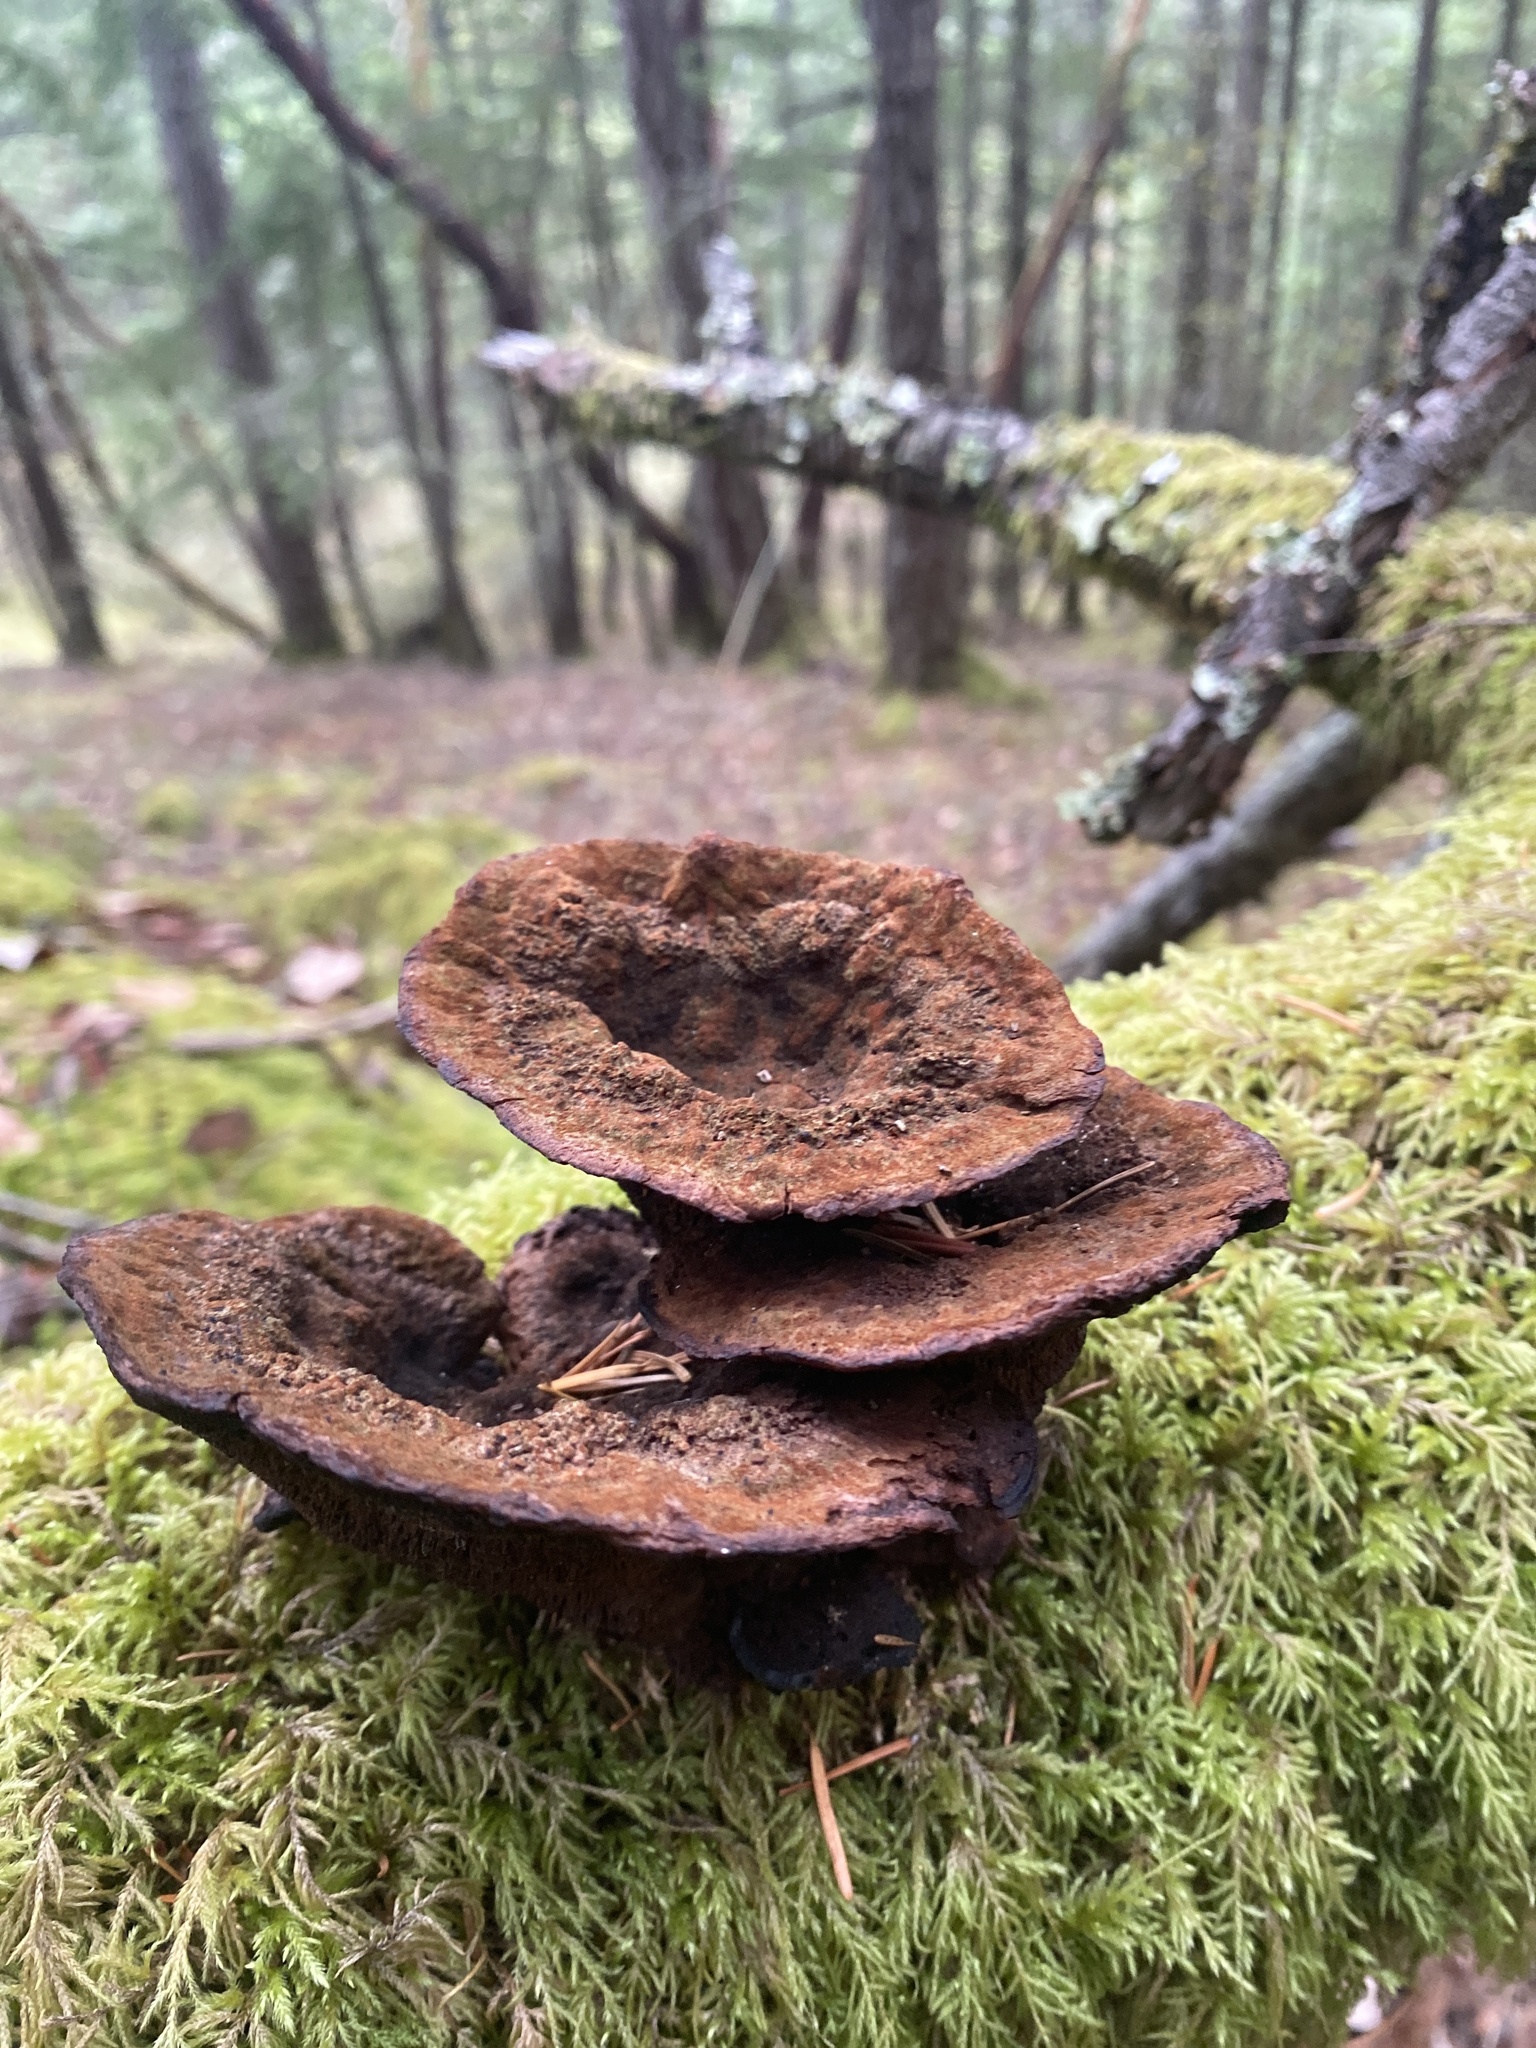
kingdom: Fungi
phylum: Basidiomycota
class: Agaricomycetes
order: Polyporales
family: Laetiporaceae
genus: Phaeolus
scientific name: Phaeolus schweinitzii
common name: Dyer's mazegill
